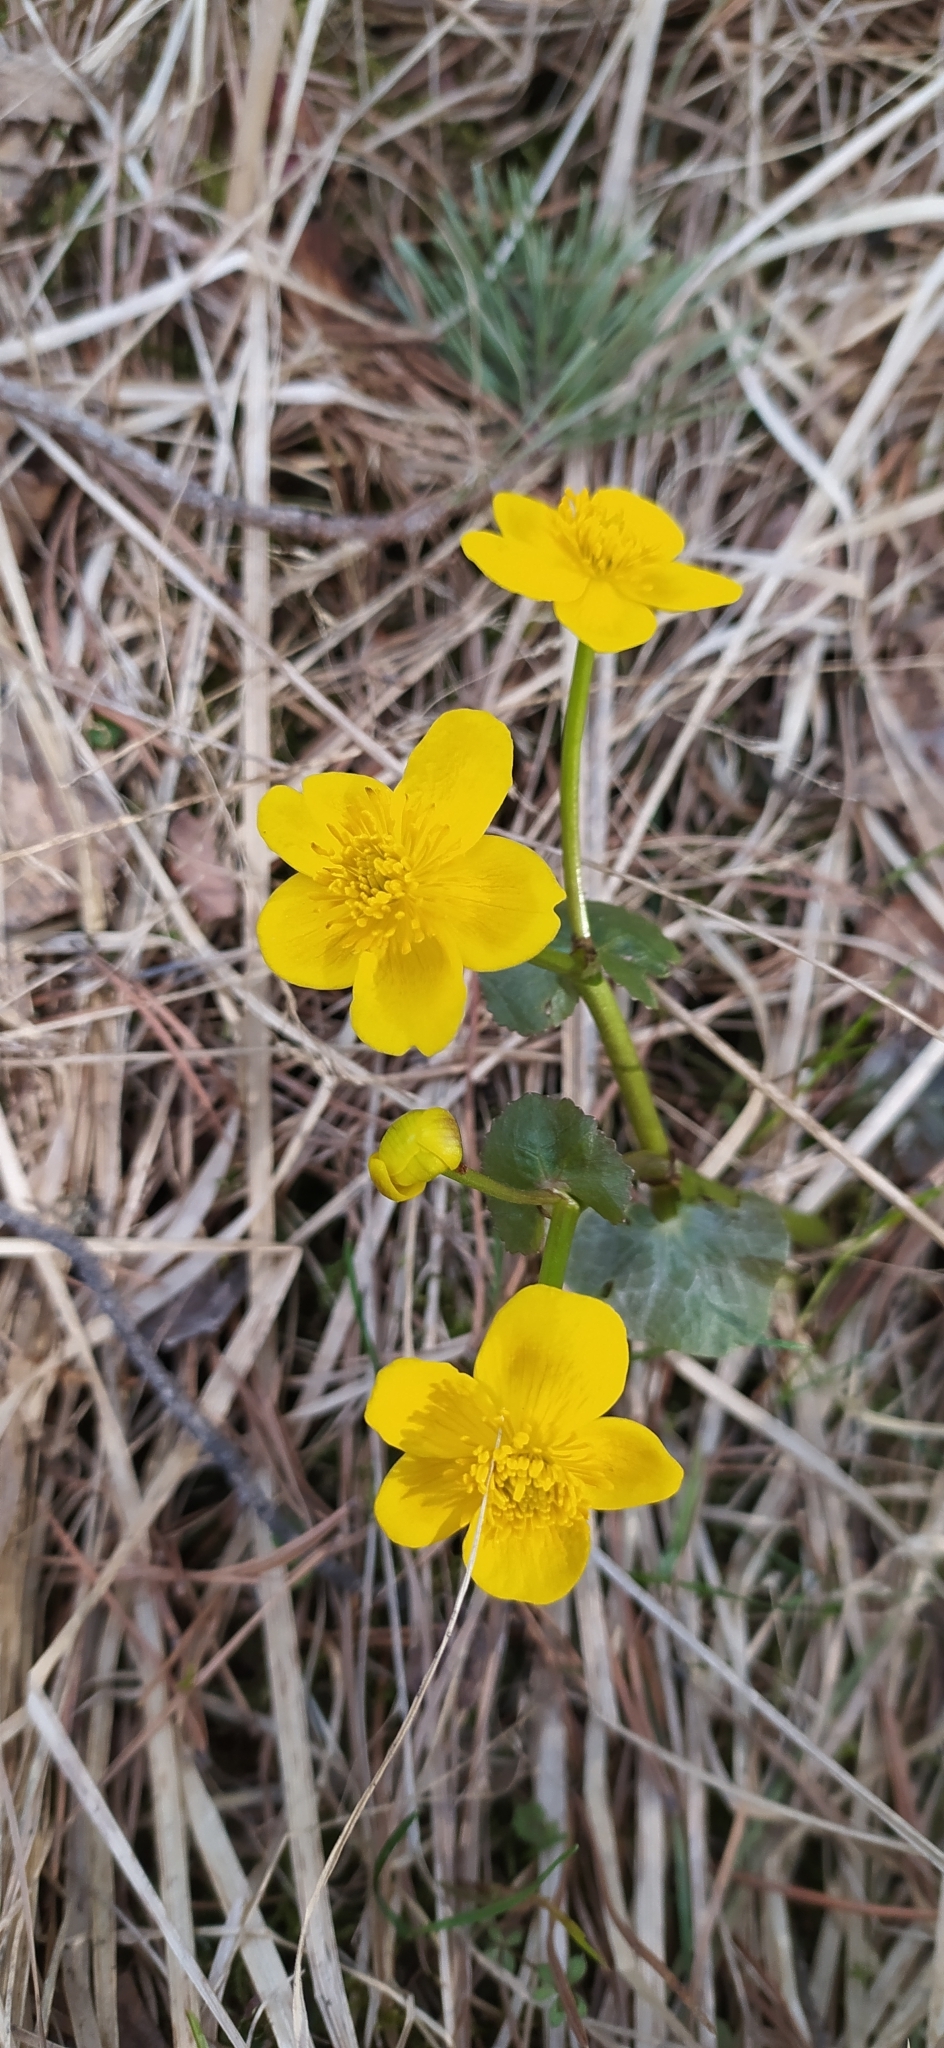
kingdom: Plantae
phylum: Tracheophyta
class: Magnoliopsida
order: Ranunculales
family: Ranunculaceae
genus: Caltha
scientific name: Caltha palustris
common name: Marsh marigold
